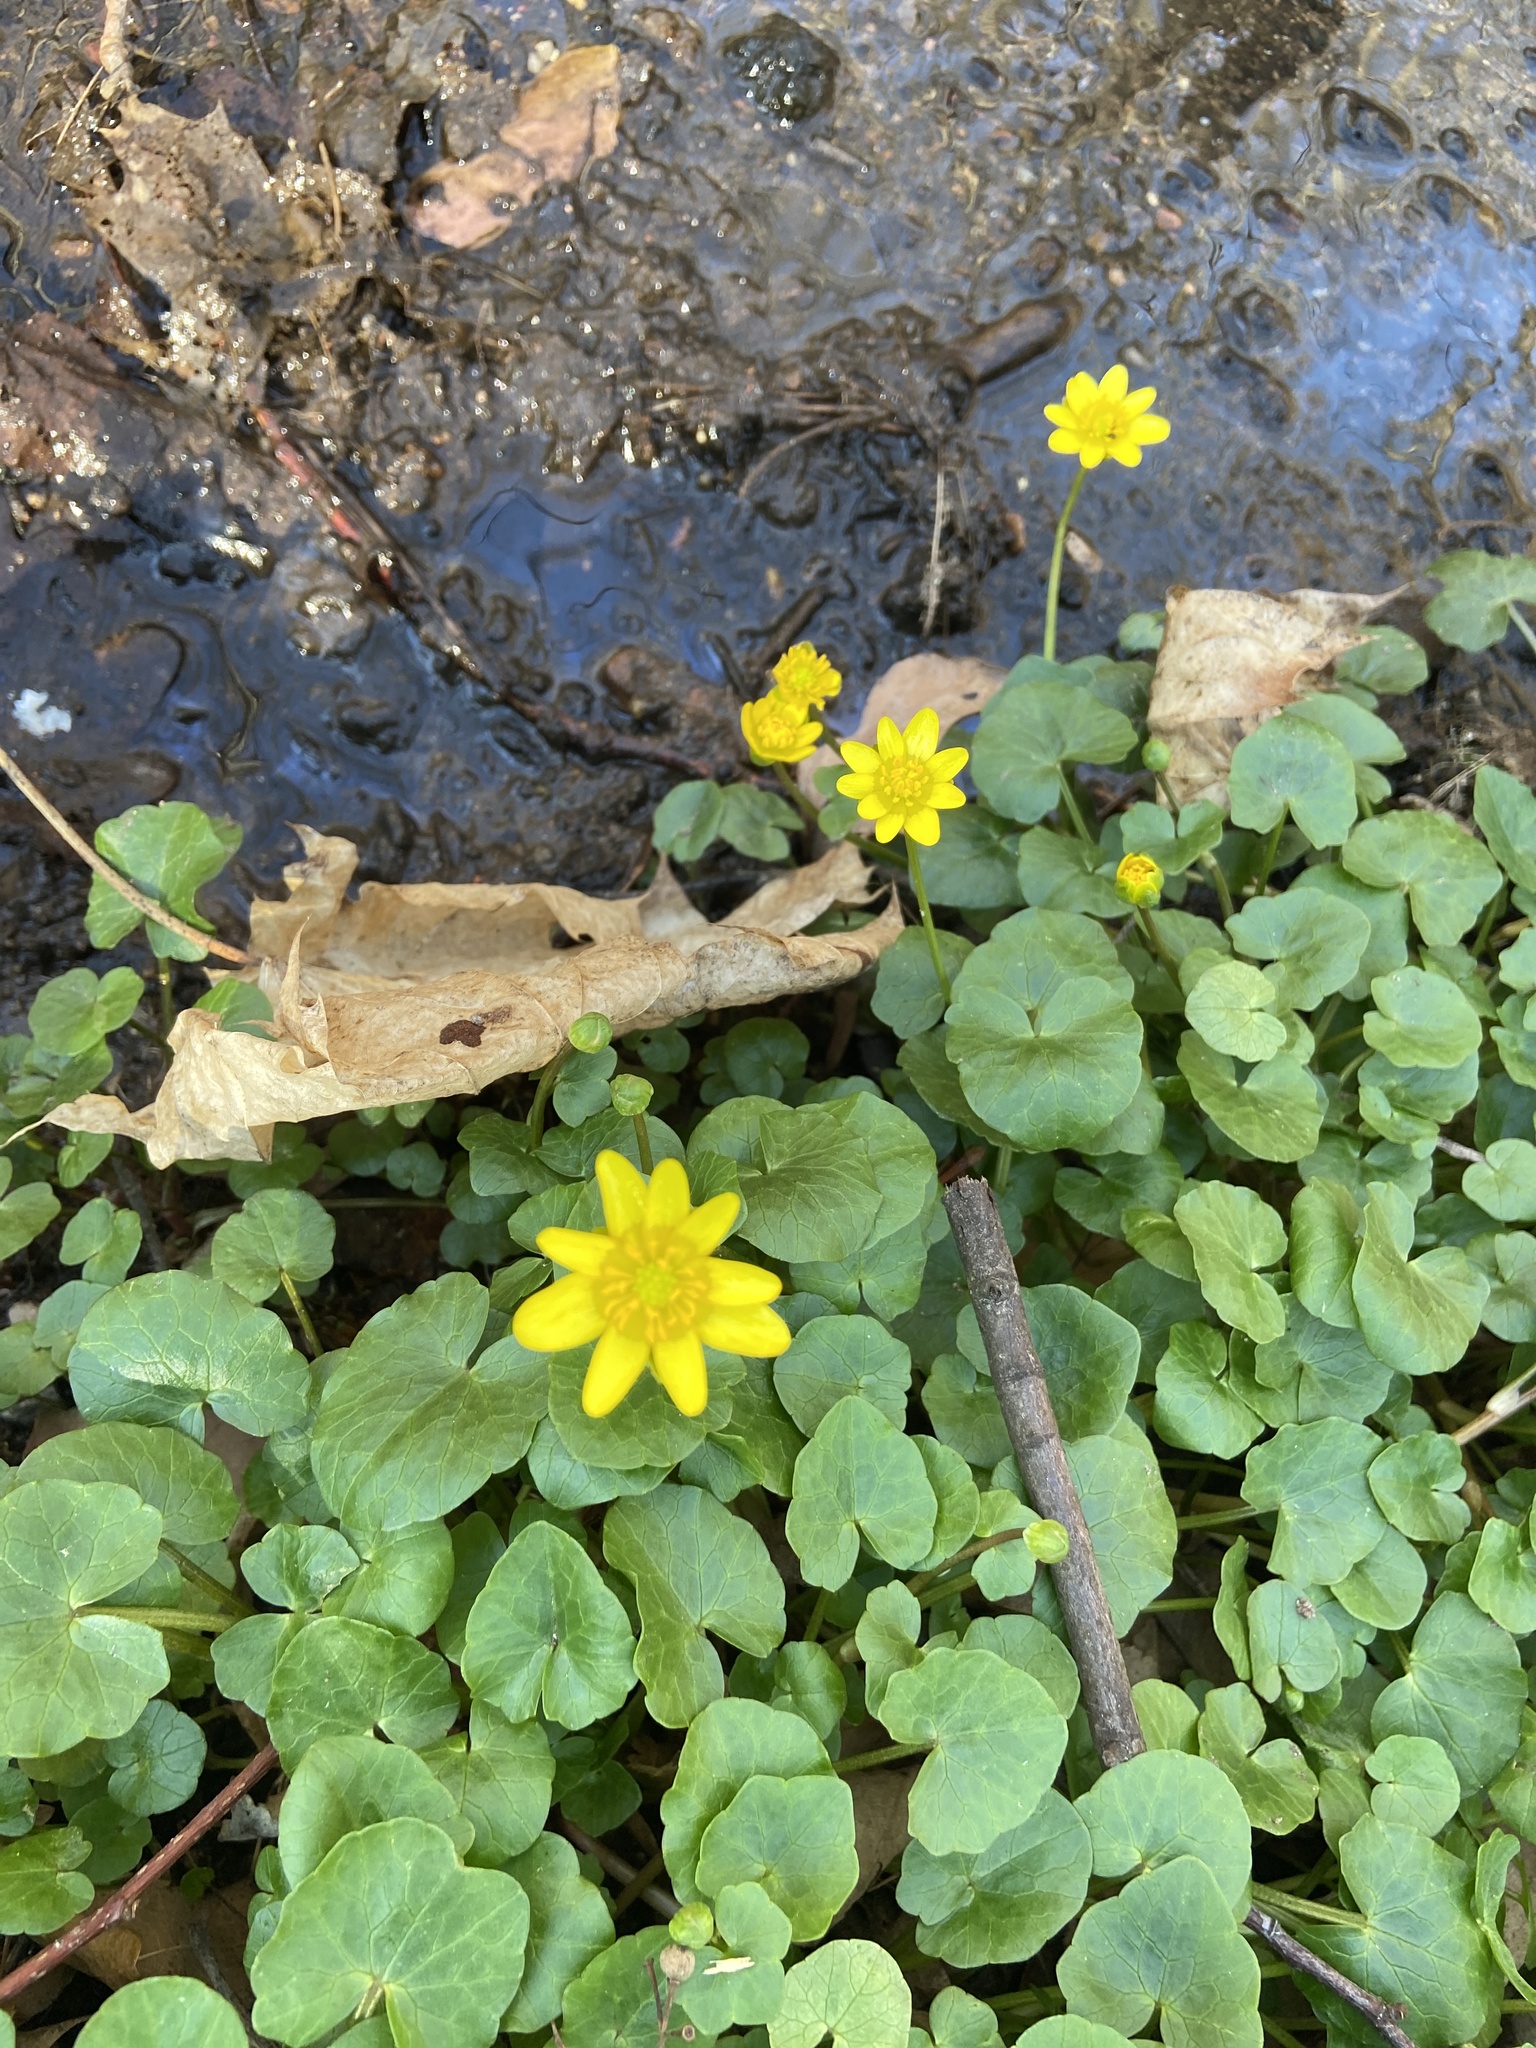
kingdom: Plantae
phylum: Tracheophyta
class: Magnoliopsida
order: Ranunculales
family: Ranunculaceae
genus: Ficaria
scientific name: Ficaria verna
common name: Lesser celandine
